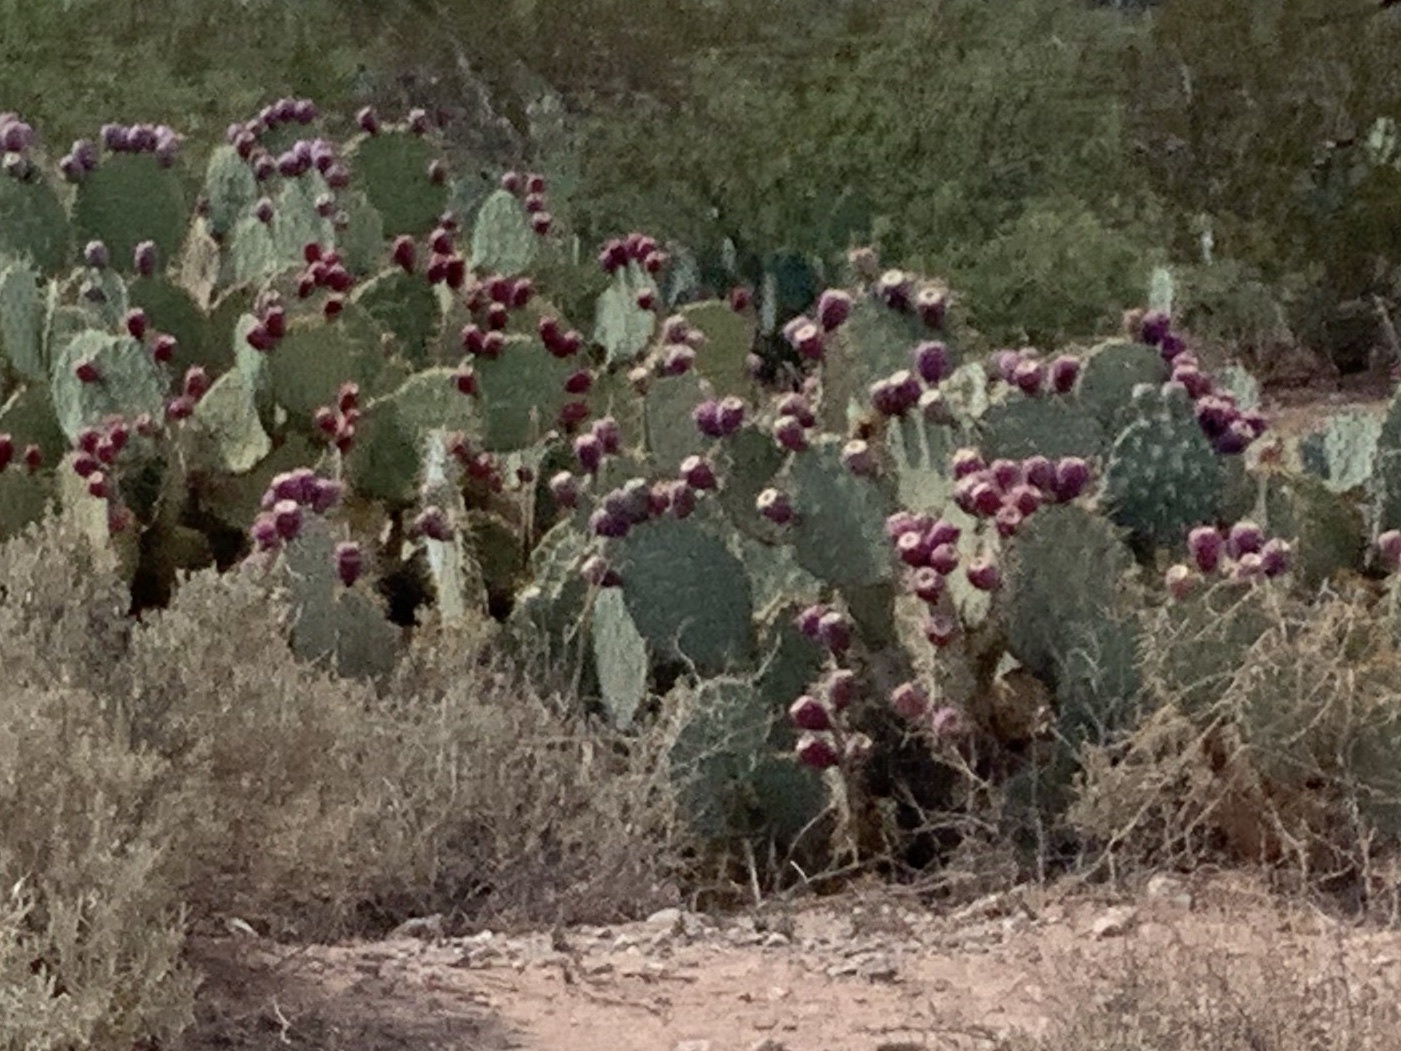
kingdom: Plantae
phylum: Tracheophyta
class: Magnoliopsida
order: Caryophyllales
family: Cactaceae
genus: Opuntia
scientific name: Opuntia engelmannii
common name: Cactus-apple
